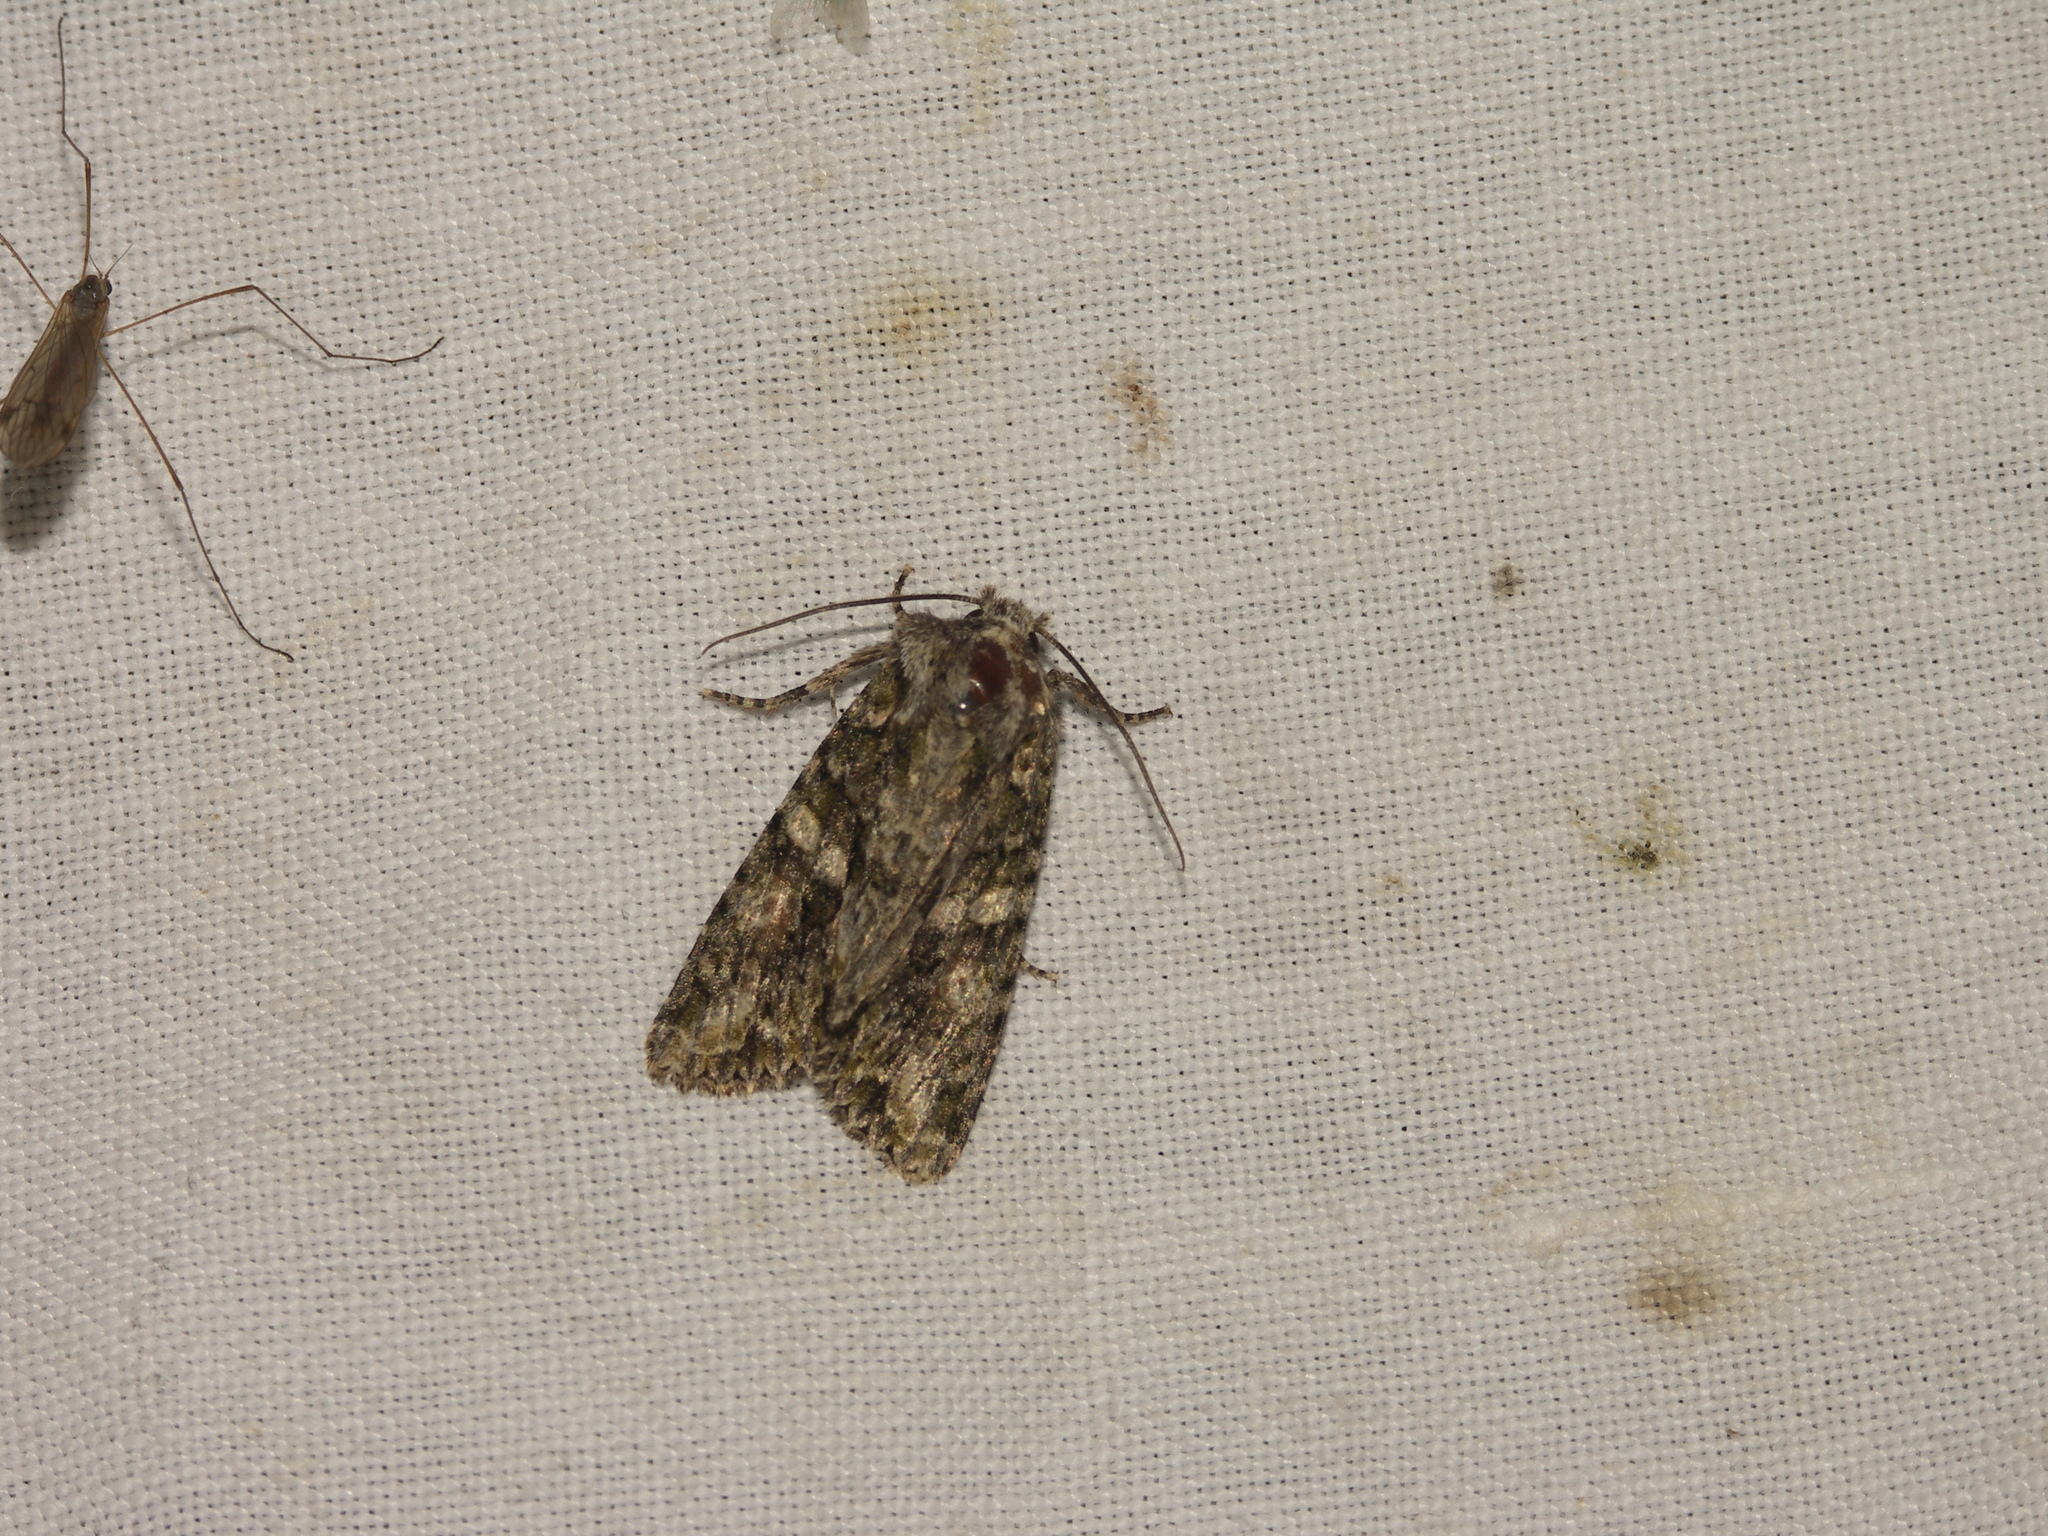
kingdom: Animalia
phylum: Arthropoda
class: Insecta
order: Lepidoptera
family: Noctuidae
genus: Dryobotodes
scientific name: Dryobotodes eremita
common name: Brindled green
